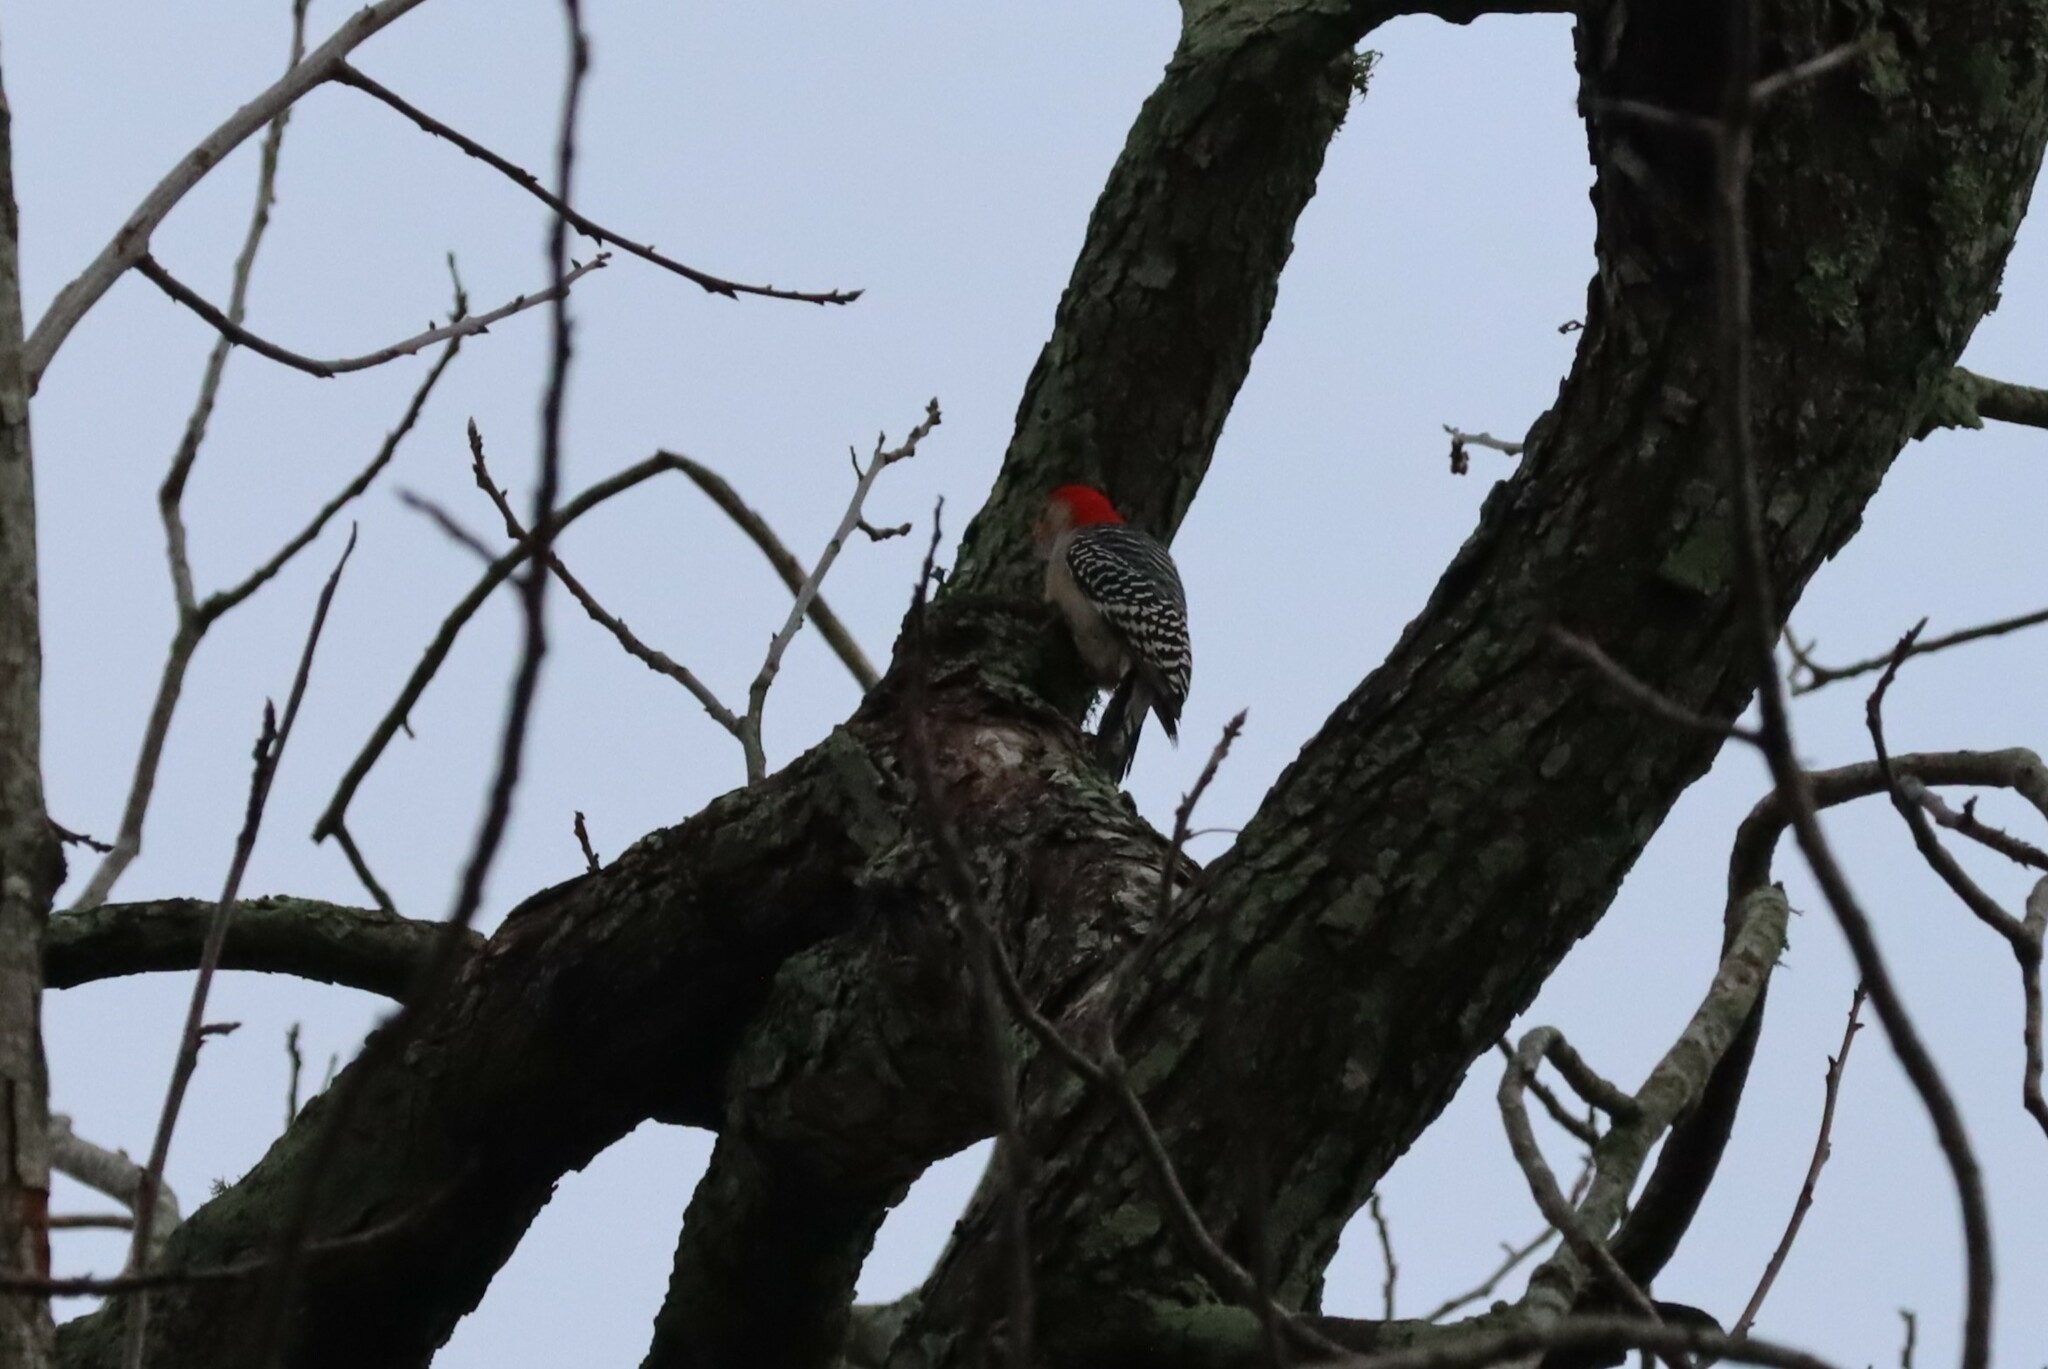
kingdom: Animalia
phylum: Chordata
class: Aves
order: Piciformes
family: Picidae
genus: Melanerpes
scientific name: Melanerpes carolinus
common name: Red-bellied woodpecker
